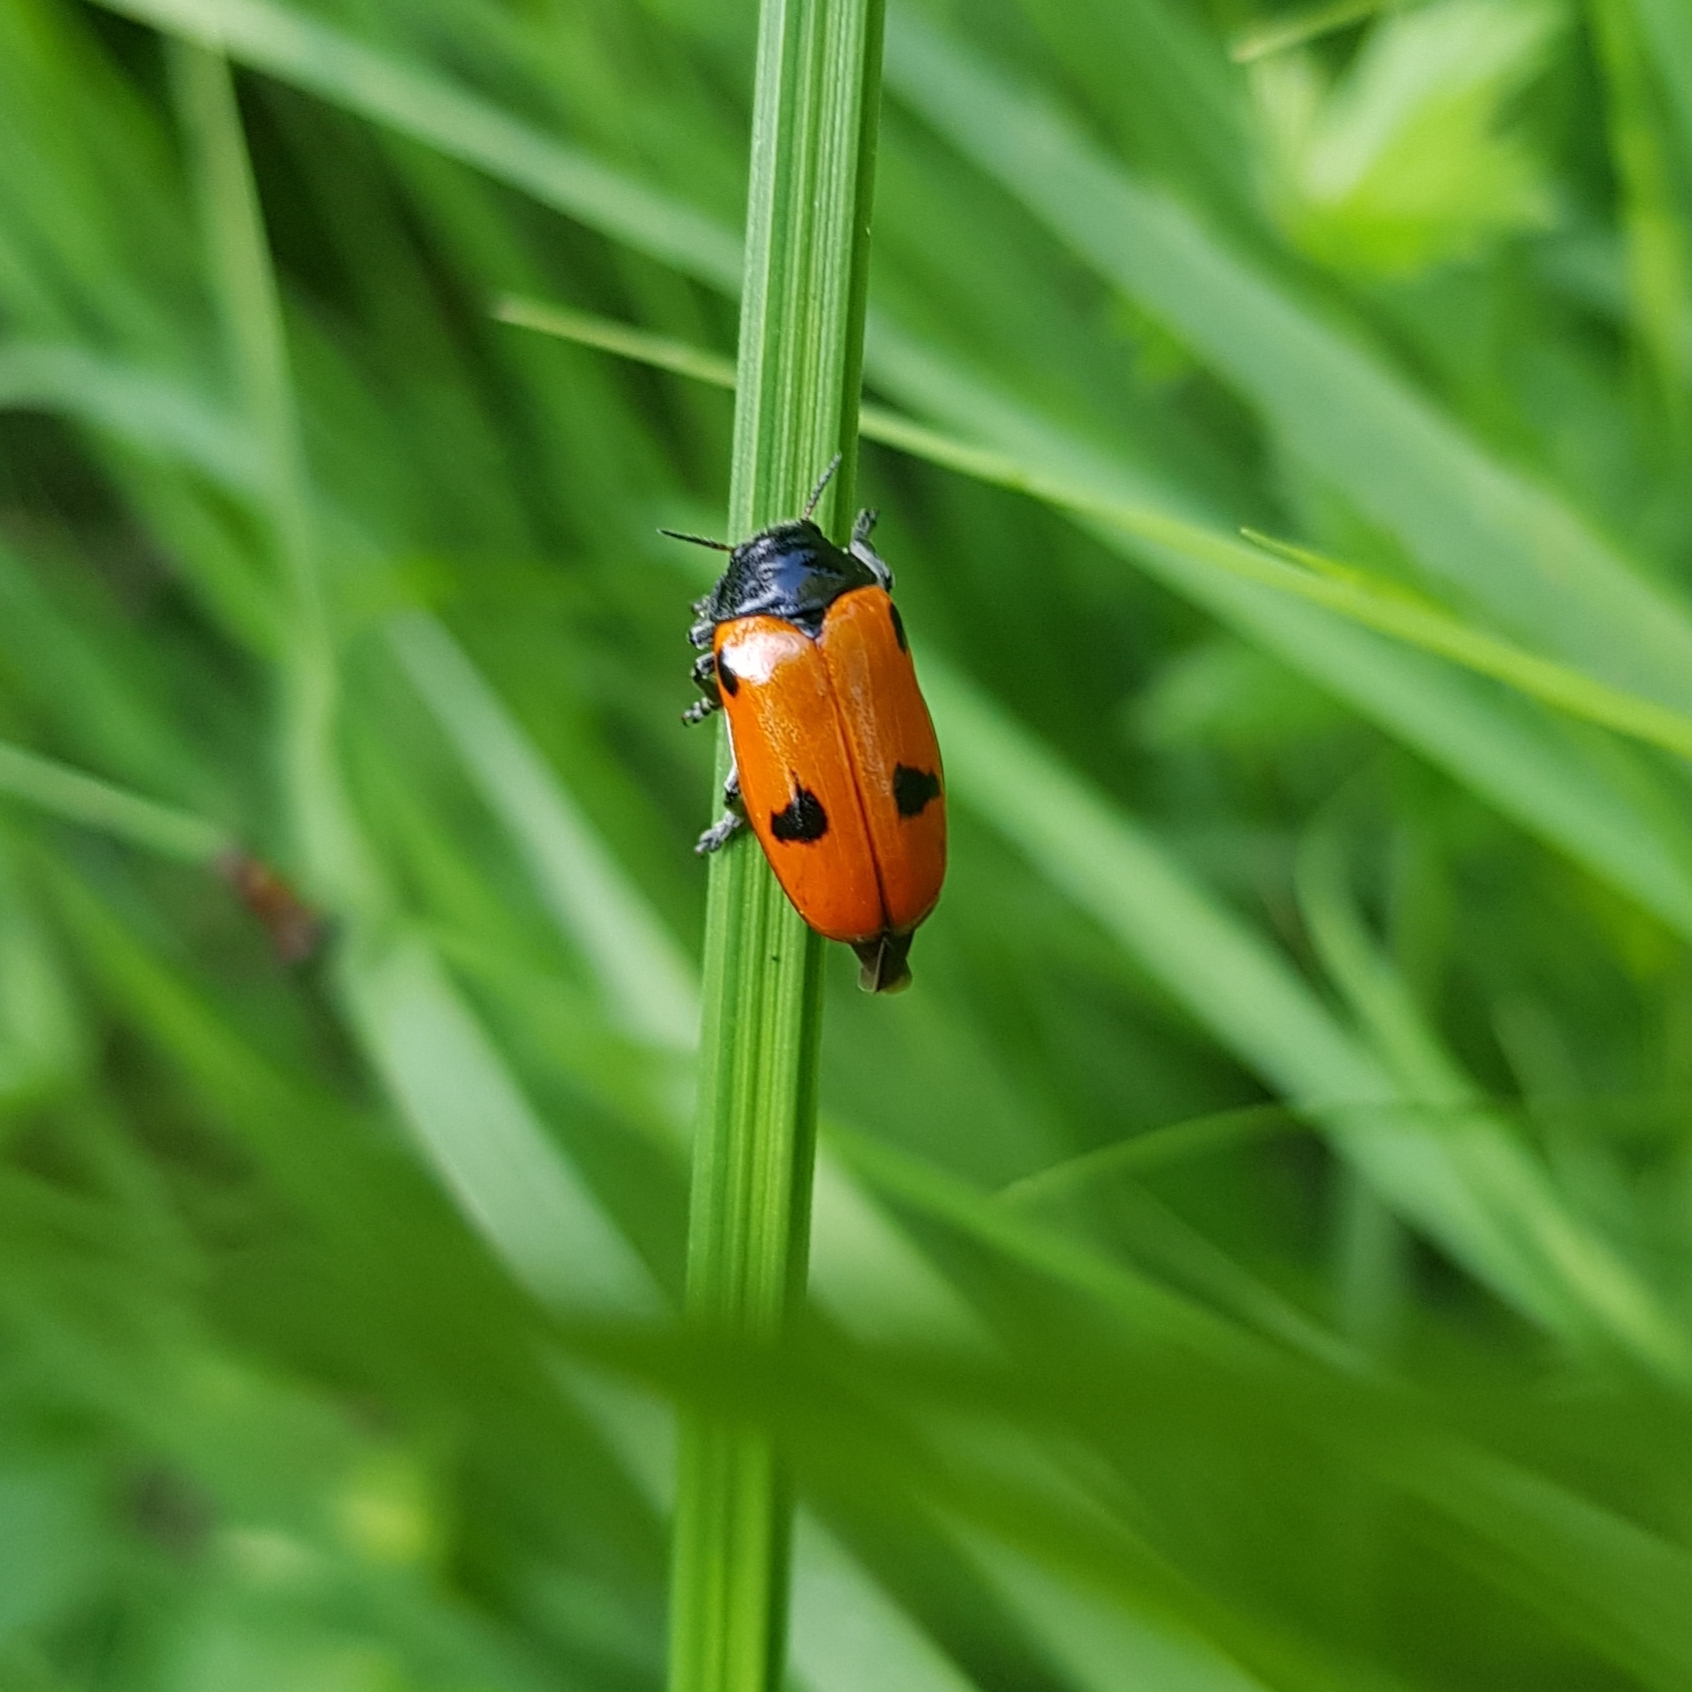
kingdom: Animalia
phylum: Arthropoda
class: Insecta
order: Coleoptera
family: Chrysomelidae
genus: Clytra
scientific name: Clytra quadripunctata
